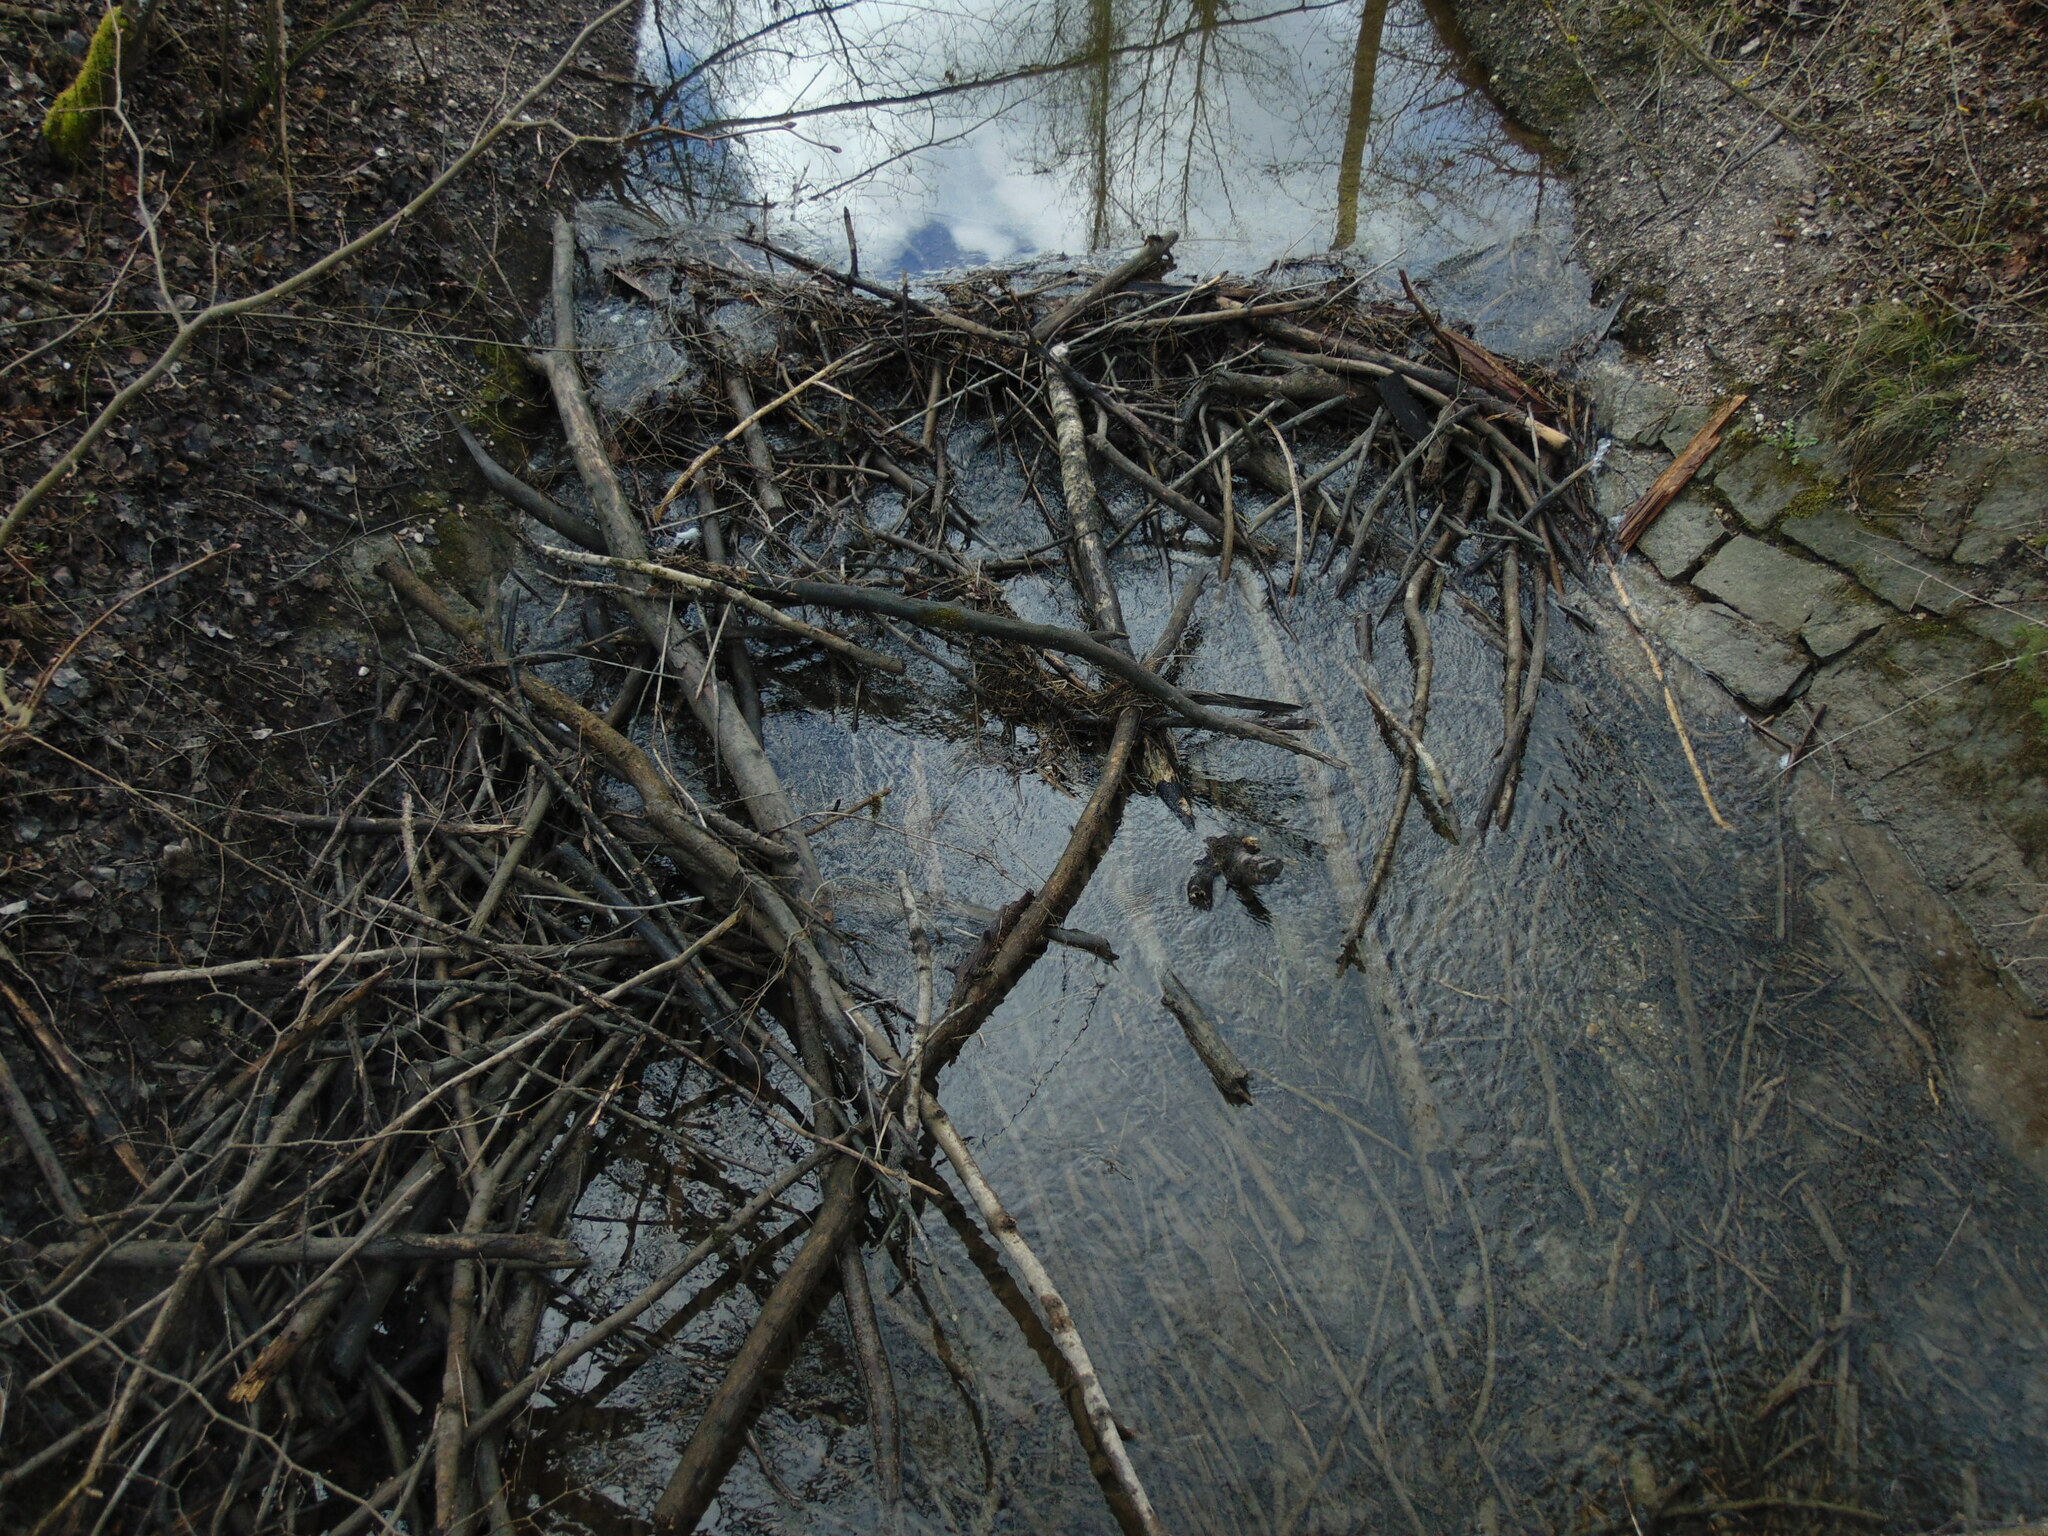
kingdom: Animalia
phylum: Chordata
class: Mammalia
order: Rodentia
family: Castoridae
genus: Castor
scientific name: Castor fiber
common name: Eurasian beaver
